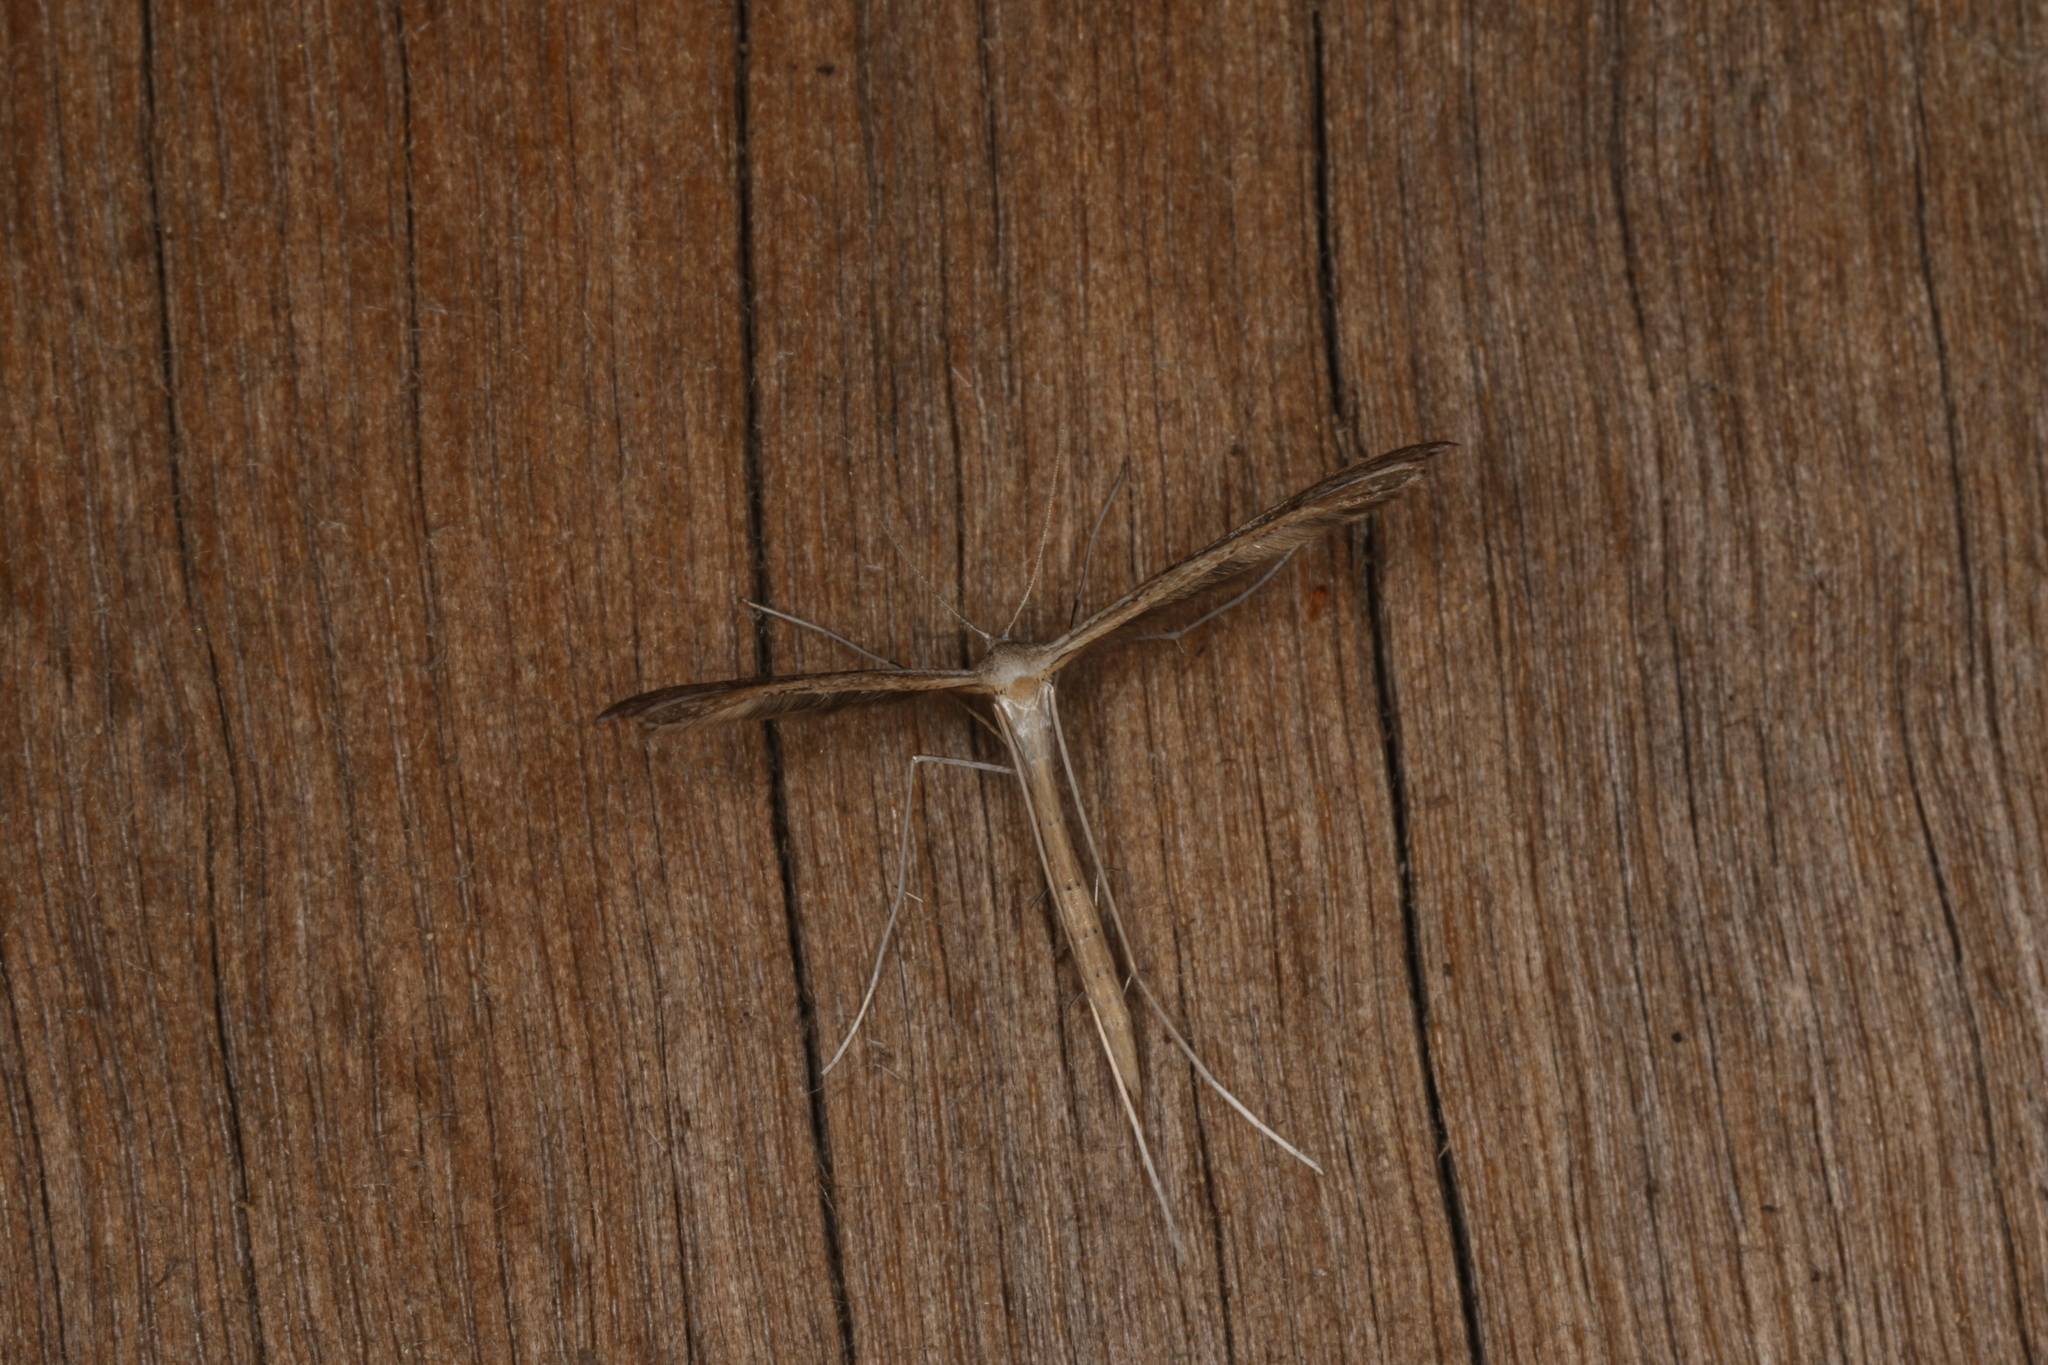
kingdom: Animalia
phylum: Arthropoda
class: Insecta
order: Lepidoptera
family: Pterophoridae
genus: Stenoptilia
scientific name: Stenoptilia zophodactylus
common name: Dowdy plume
